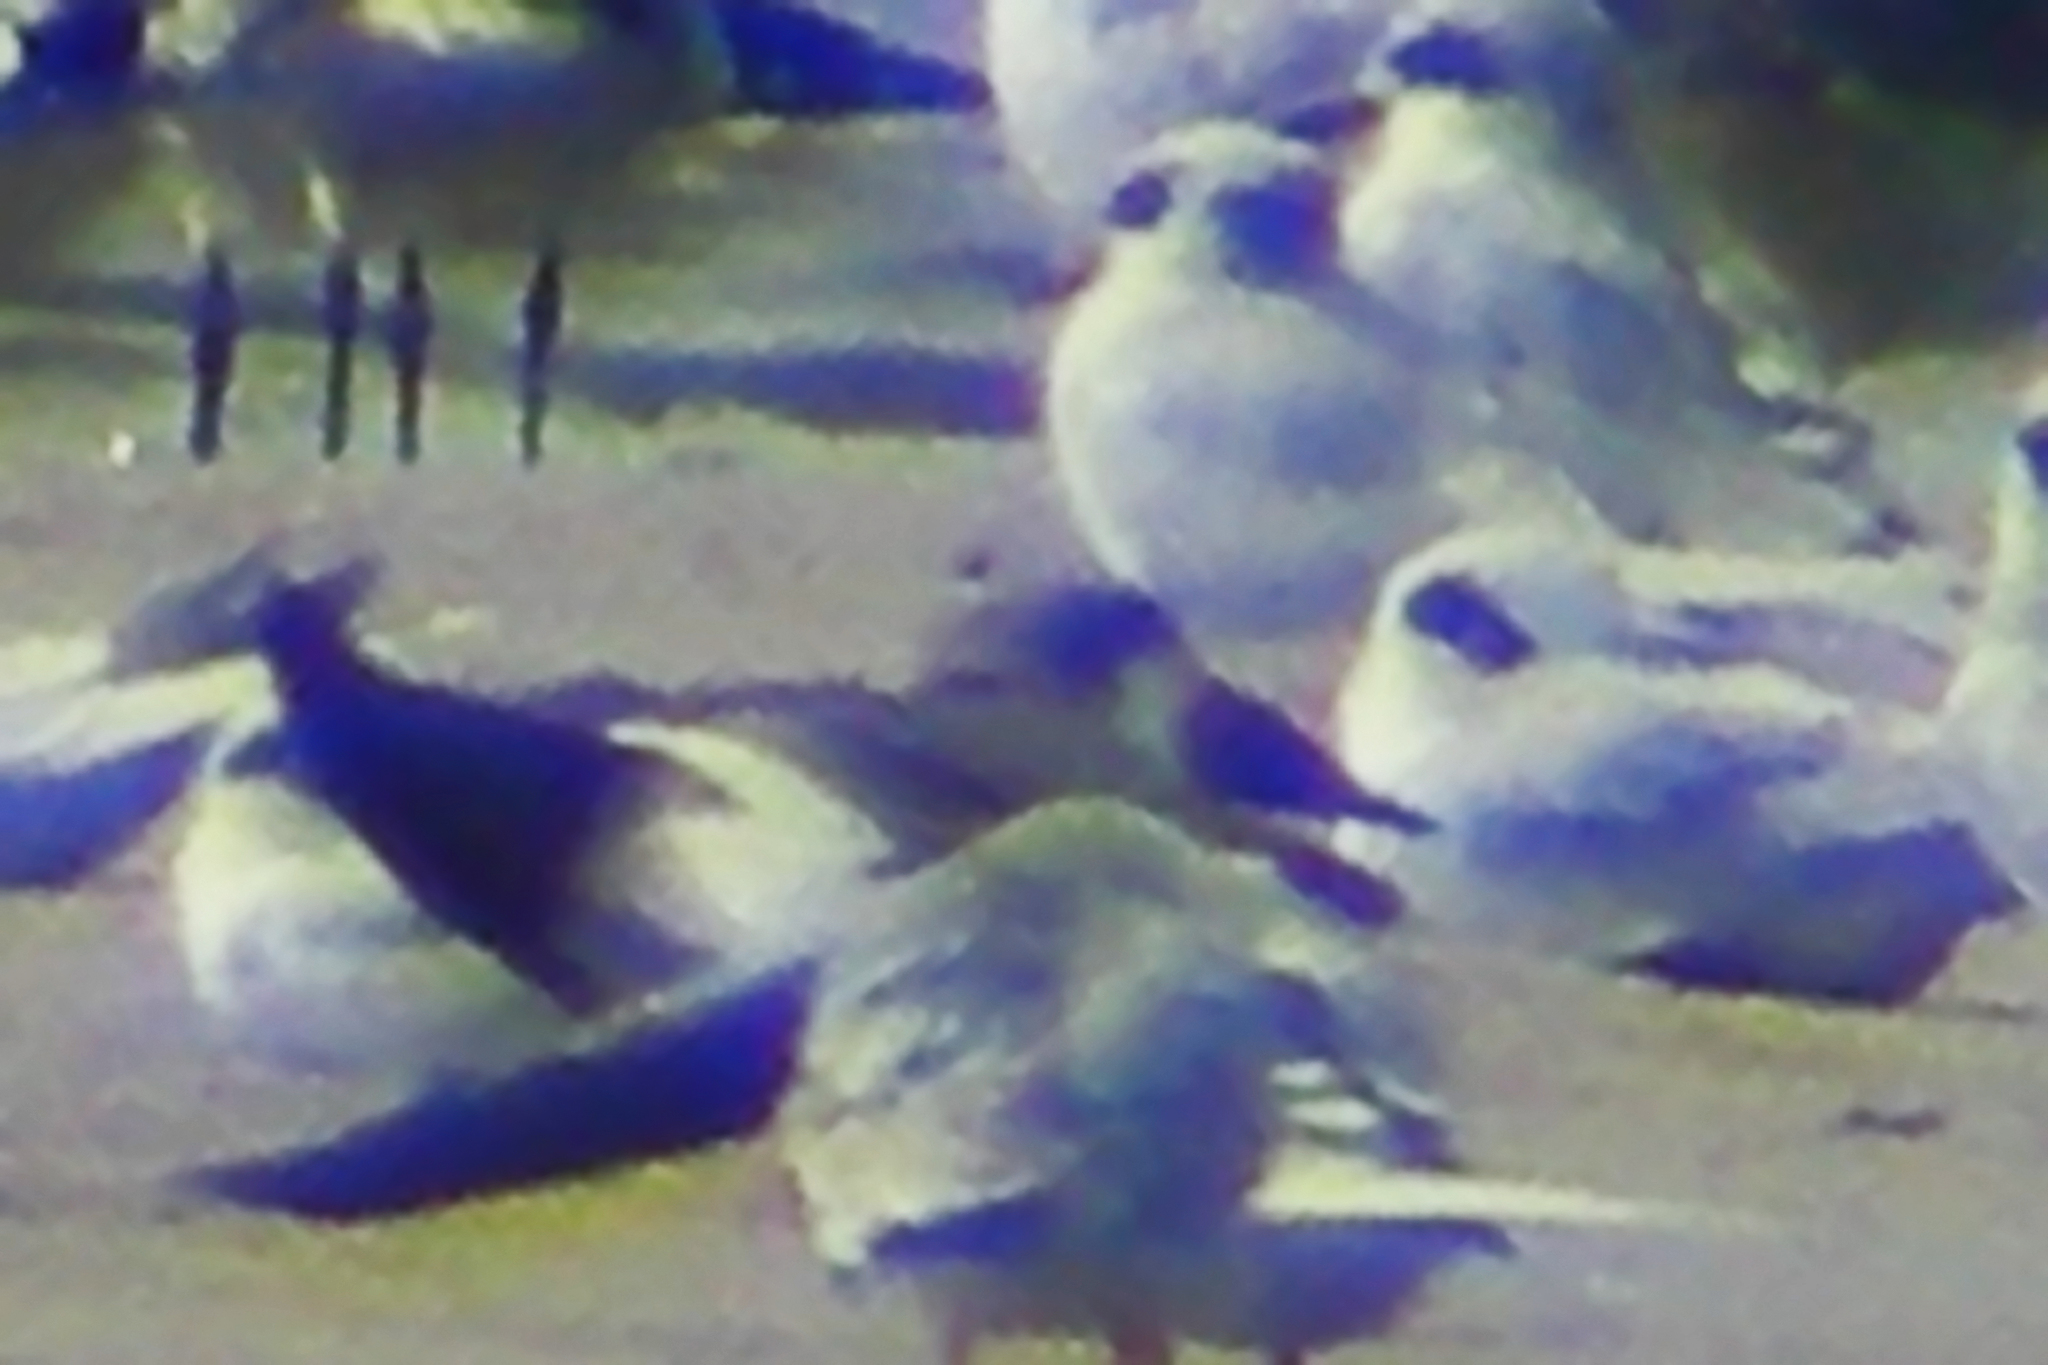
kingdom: Animalia
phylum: Chordata
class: Aves
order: Charadriiformes
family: Laridae
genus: Rynchops
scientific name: Rynchops niger
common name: Black skimmer
